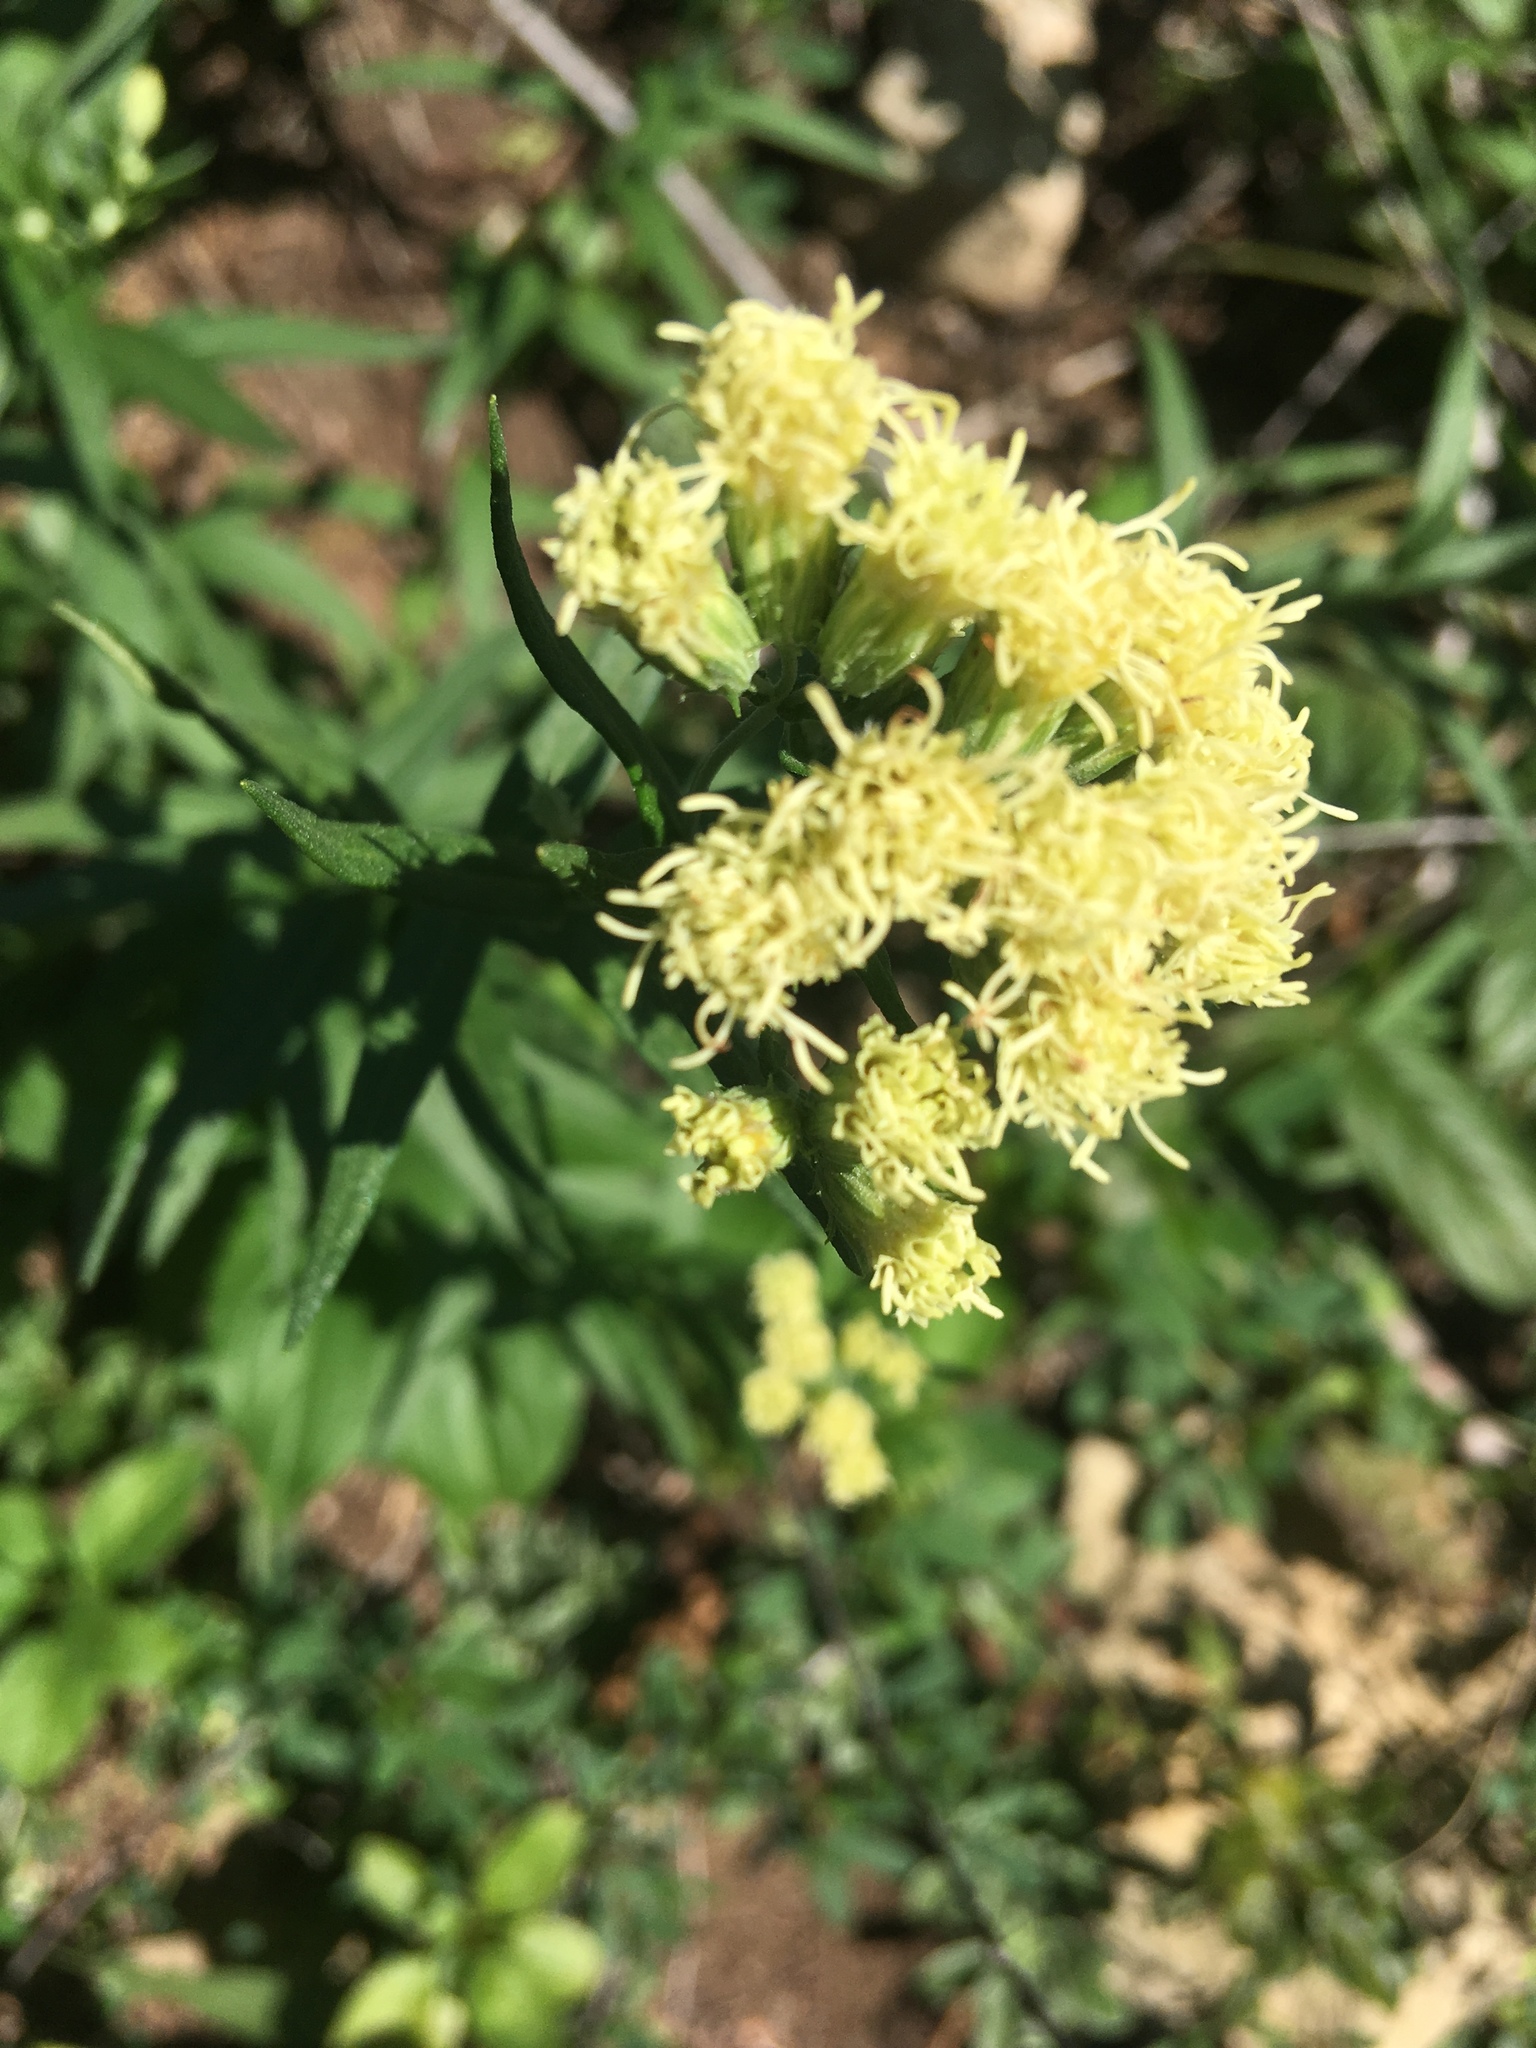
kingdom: Plantae
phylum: Tracheophyta
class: Magnoliopsida
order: Asterales
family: Asteraceae
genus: Brickellia
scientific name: Brickellia eupatorioides
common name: False boneset
